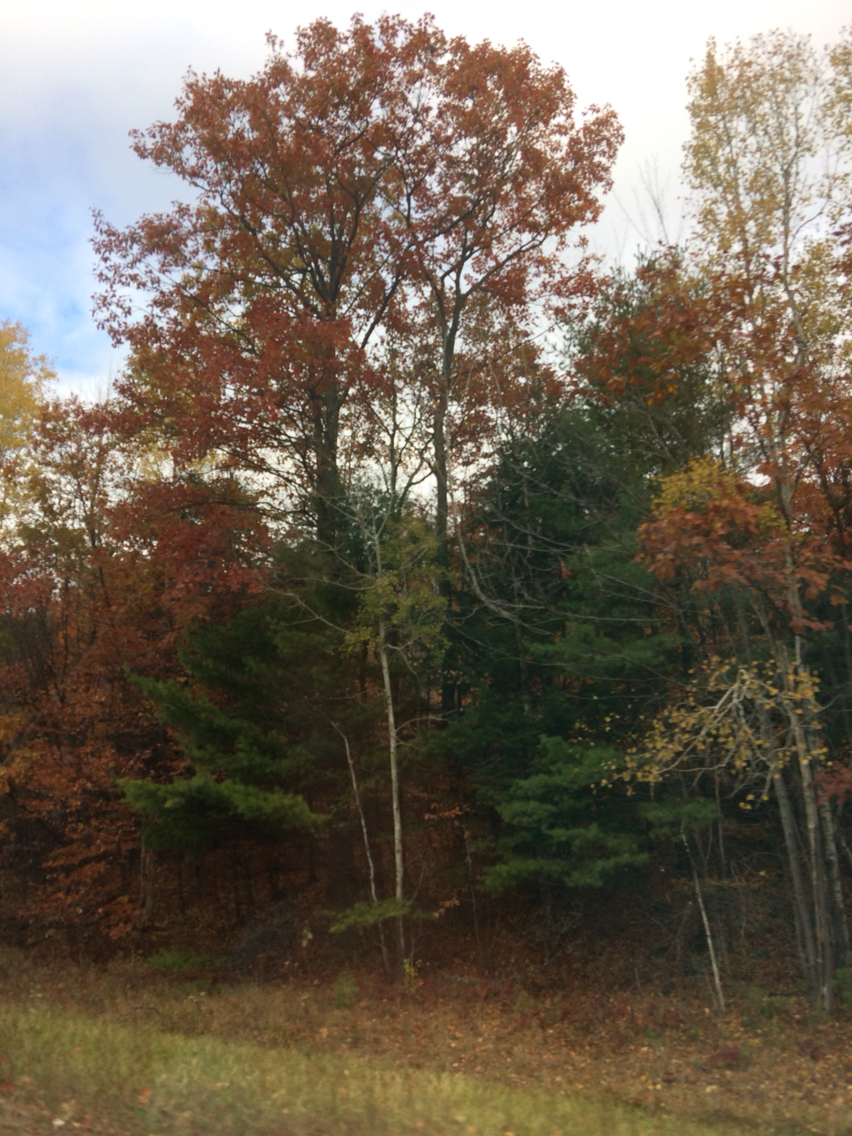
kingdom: Plantae
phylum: Tracheophyta
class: Magnoliopsida
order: Fagales
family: Fagaceae
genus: Quercus
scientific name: Quercus rubra
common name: Red oak
